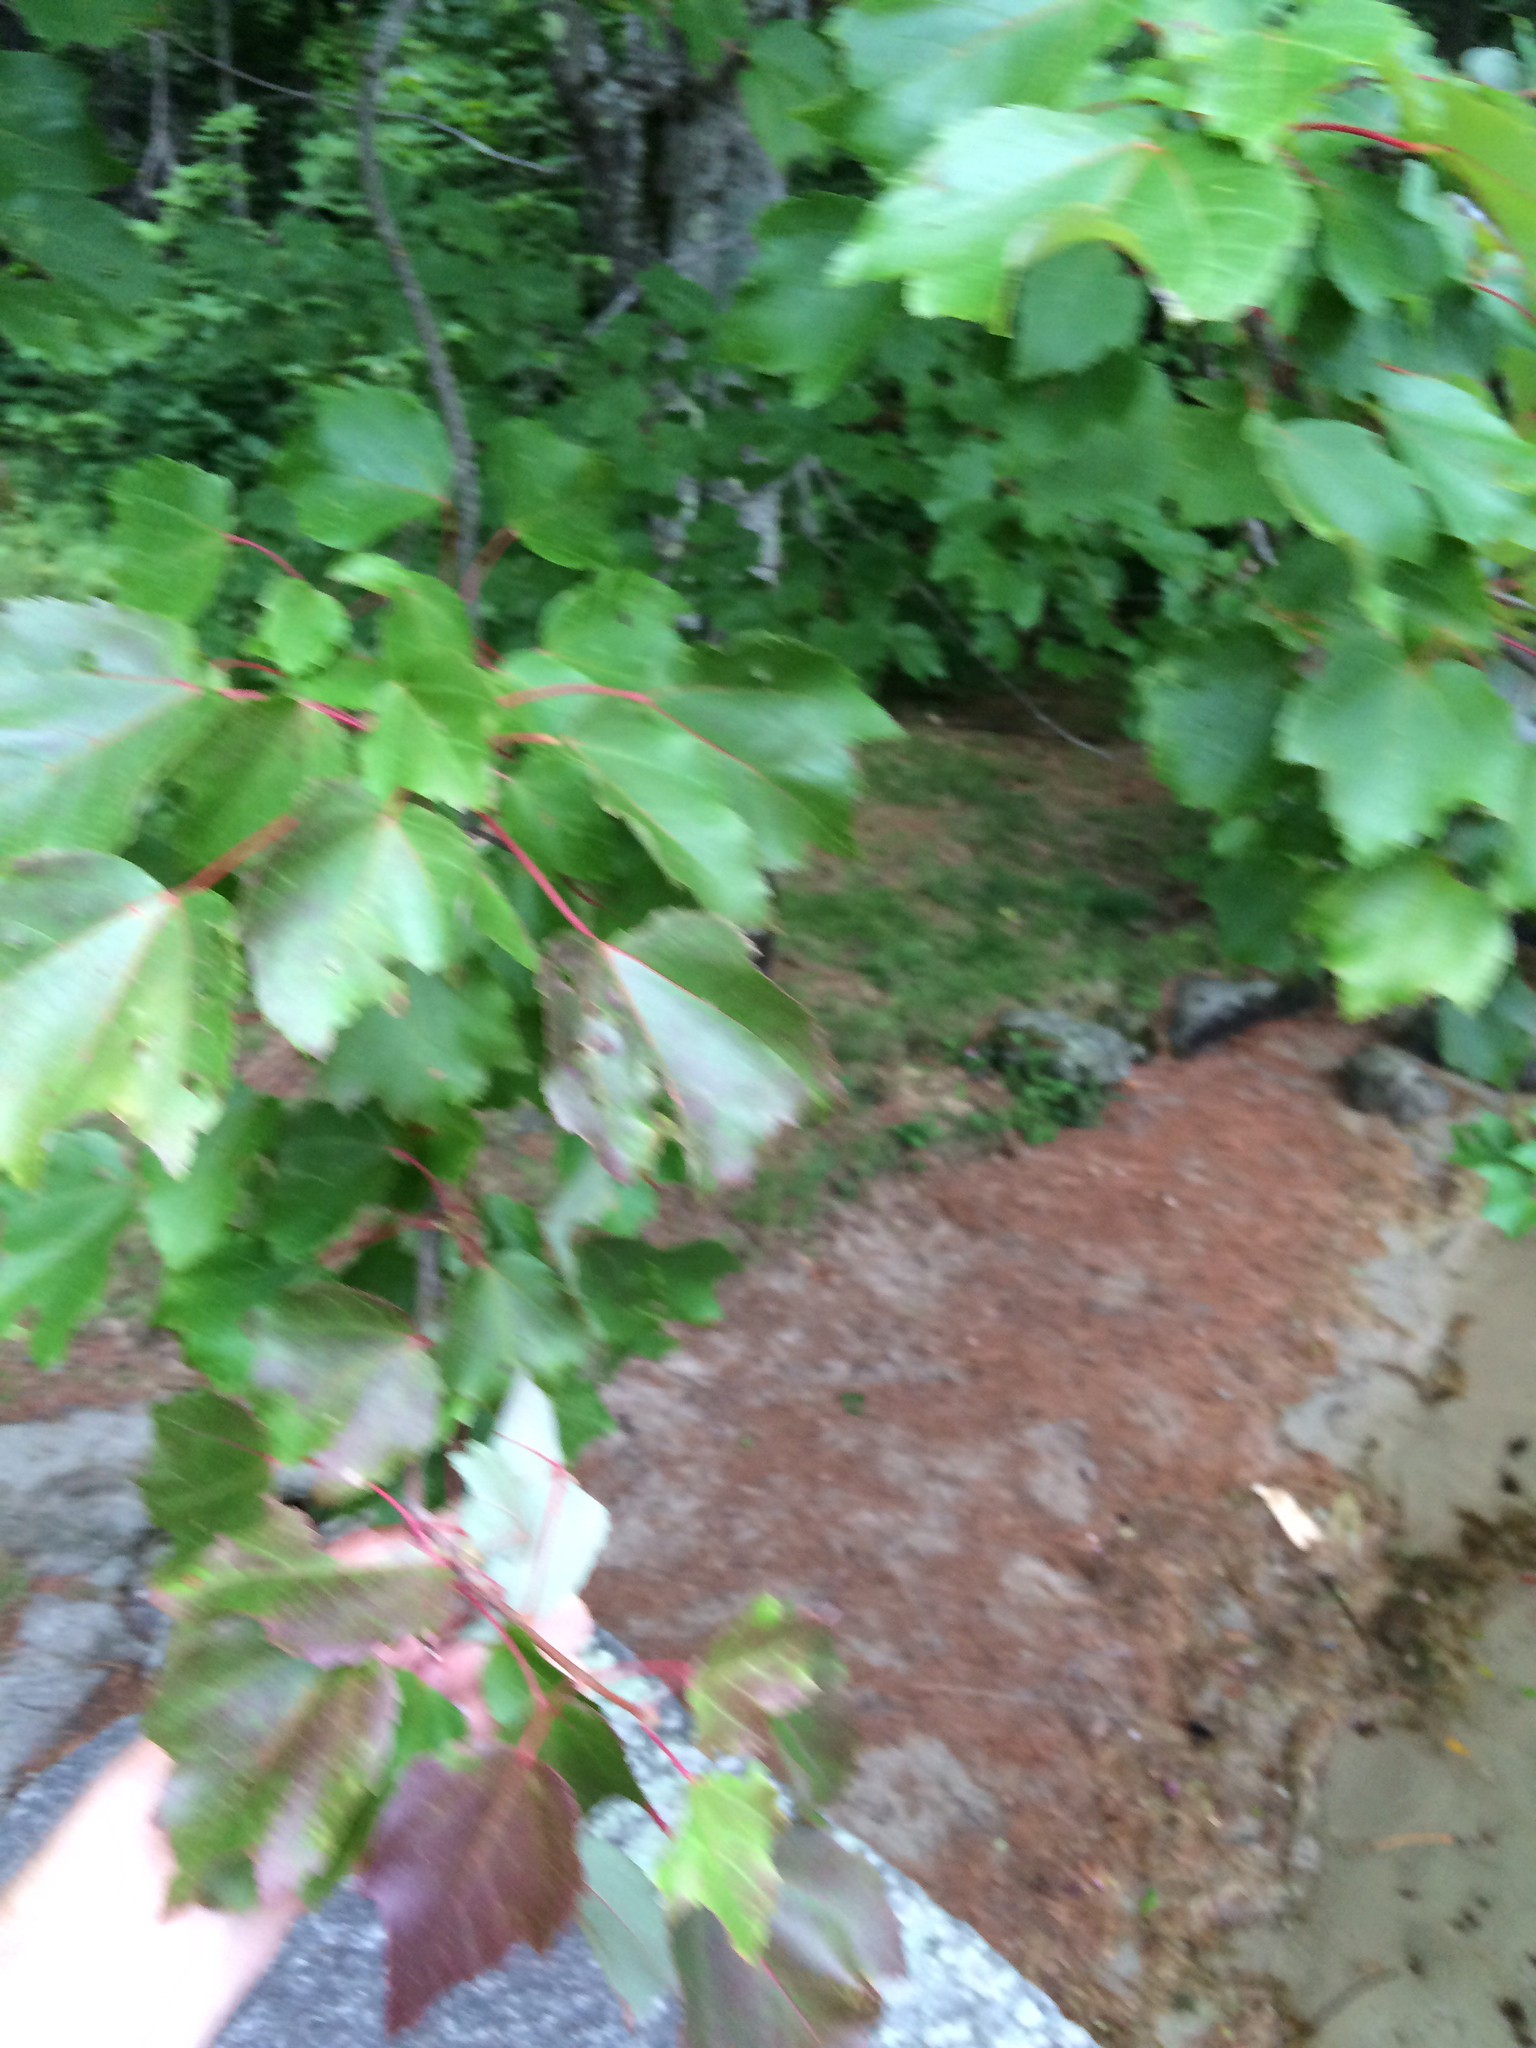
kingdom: Plantae
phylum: Tracheophyta
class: Magnoliopsida
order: Sapindales
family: Sapindaceae
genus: Acer
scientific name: Acer rubrum
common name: Red maple
